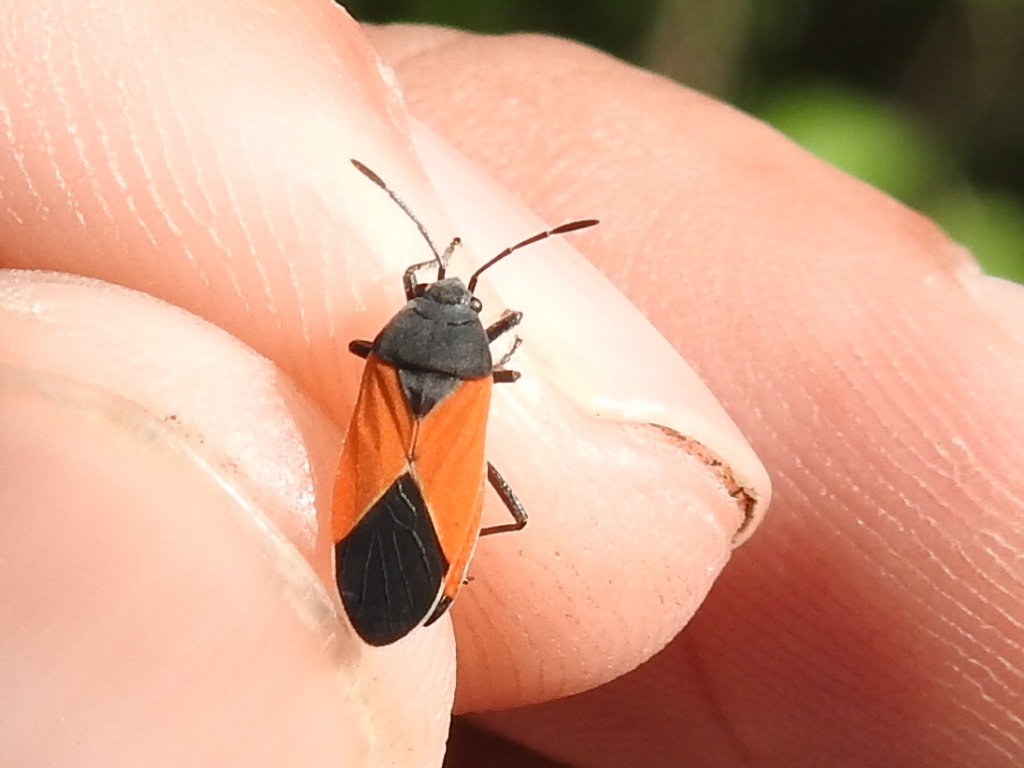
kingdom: Animalia
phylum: Arthropoda
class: Insecta
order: Hemiptera
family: Lygaeidae
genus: Melanopleurus
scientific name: Melanopleurus belfragei
